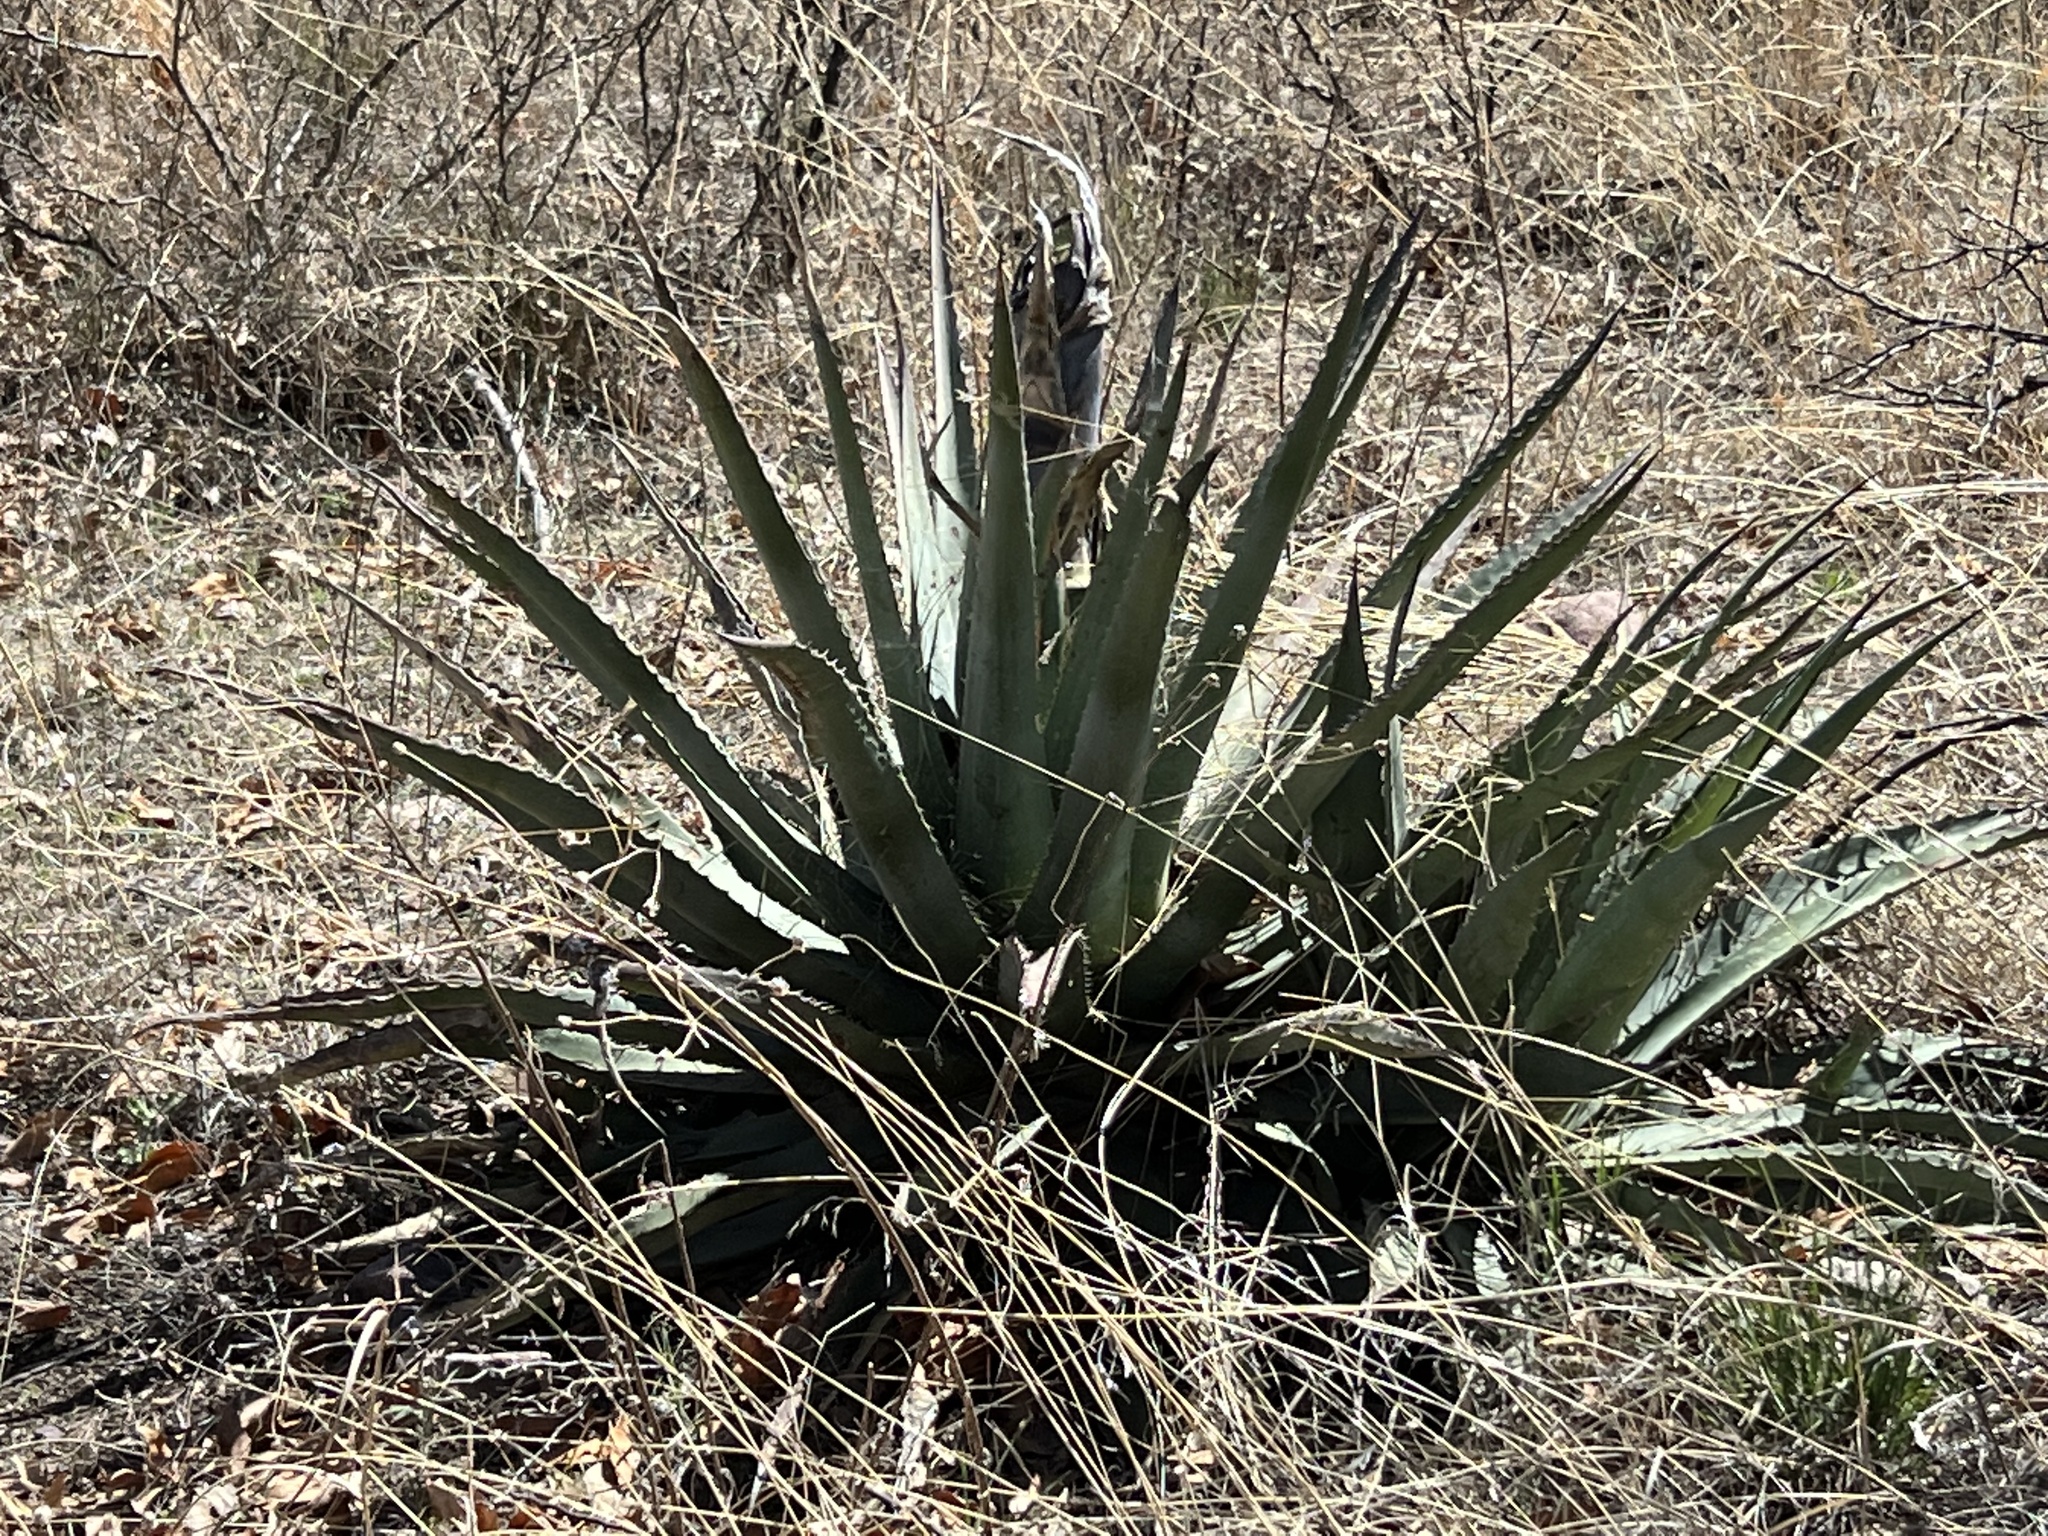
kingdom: Plantae
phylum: Tracheophyta
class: Liliopsida
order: Asparagales
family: Asparagaceae
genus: Agave
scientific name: Agave palmeri
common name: Palmer agave
